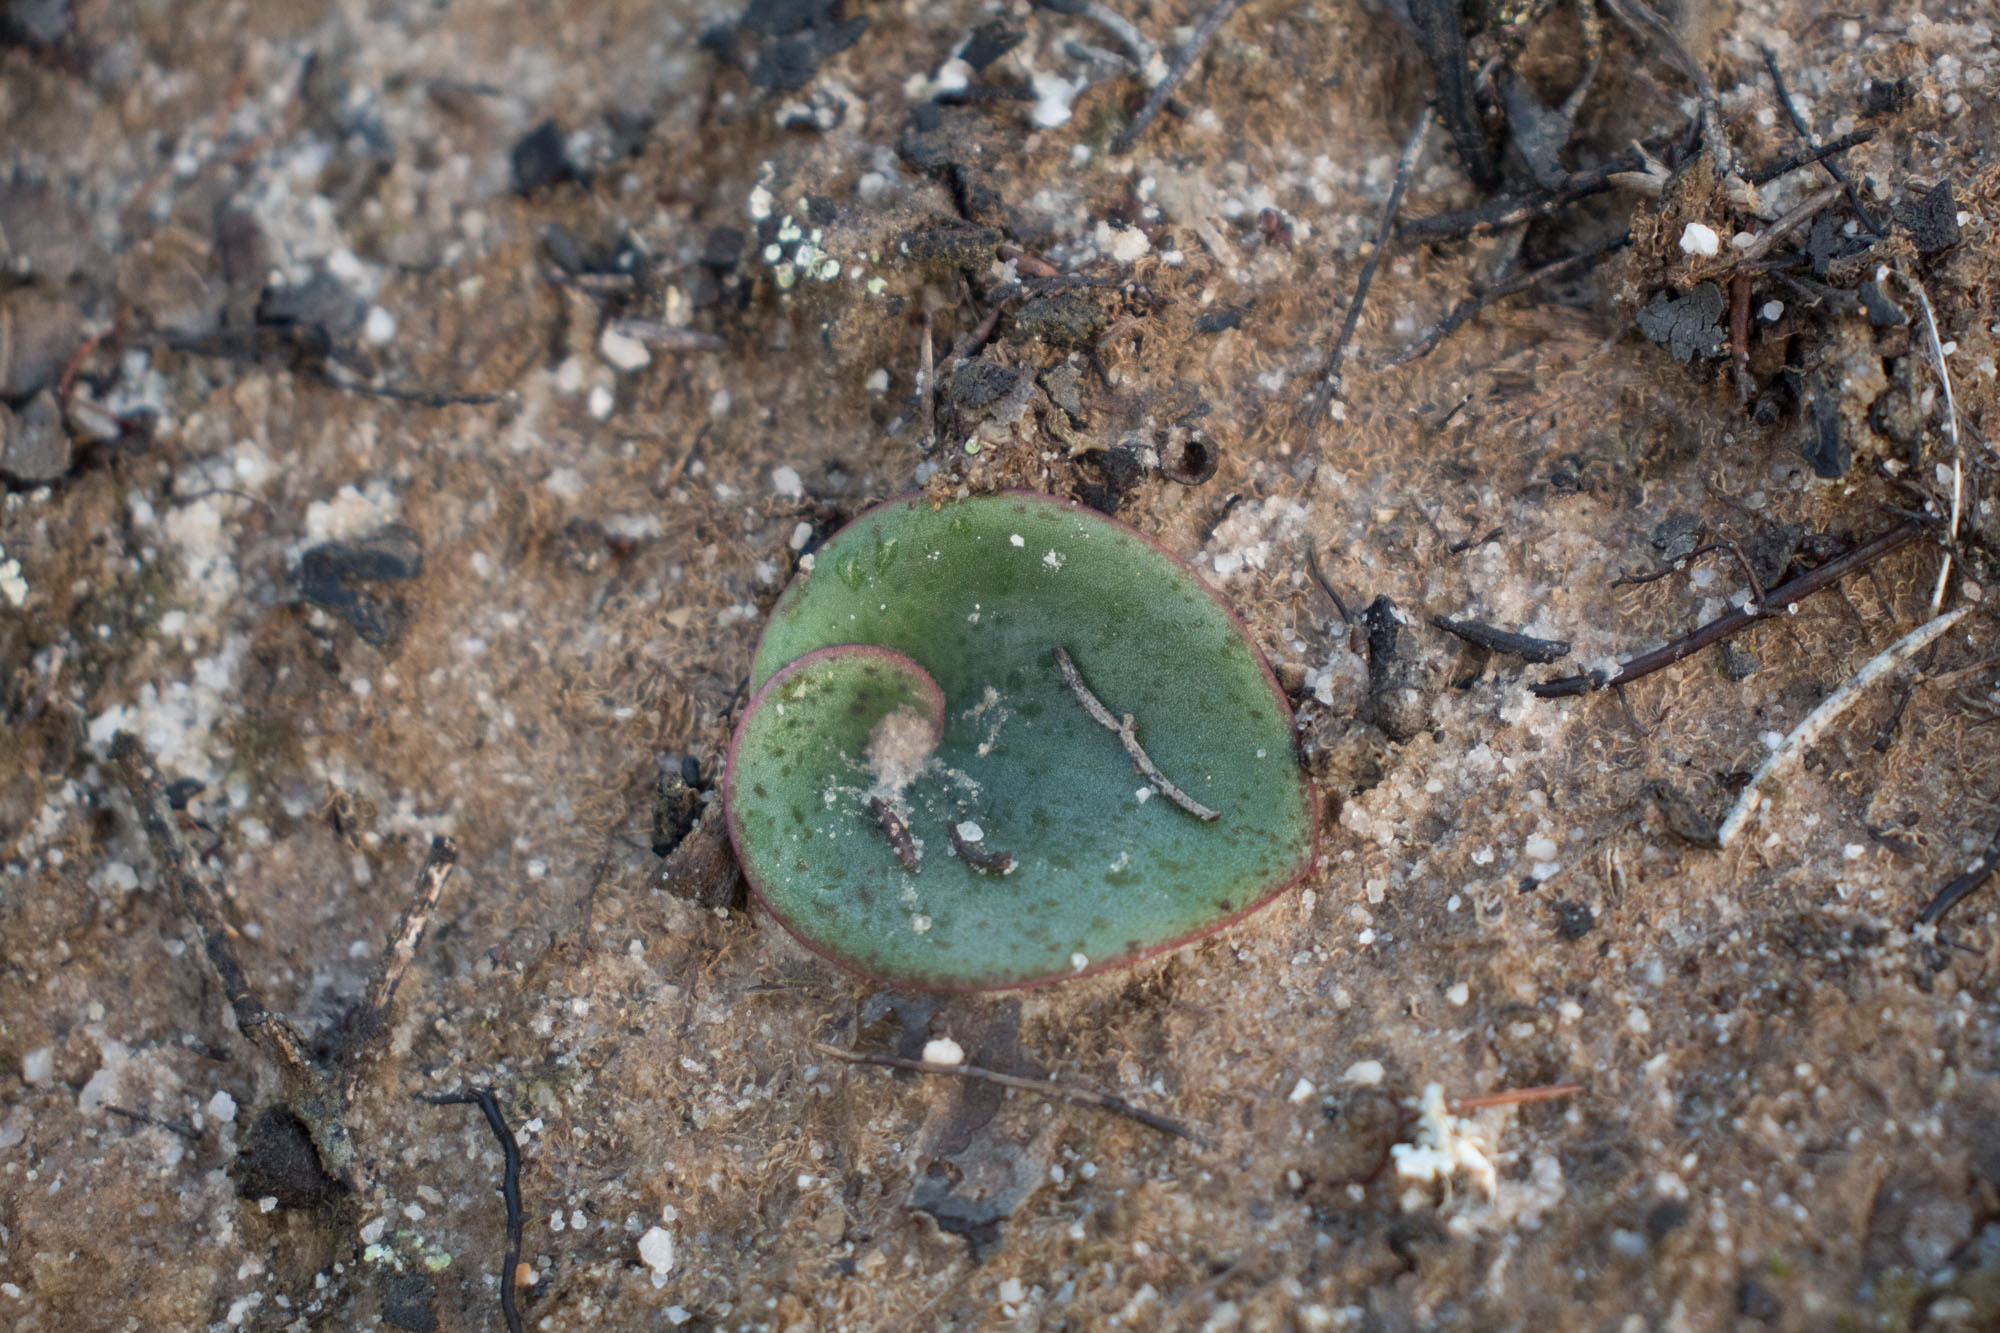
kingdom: Plantae
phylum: Tracheophyta
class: Liliopsida
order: Asparagales
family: Orchidaceae
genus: Pyrorchis
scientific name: Pyrorchis nigricans
